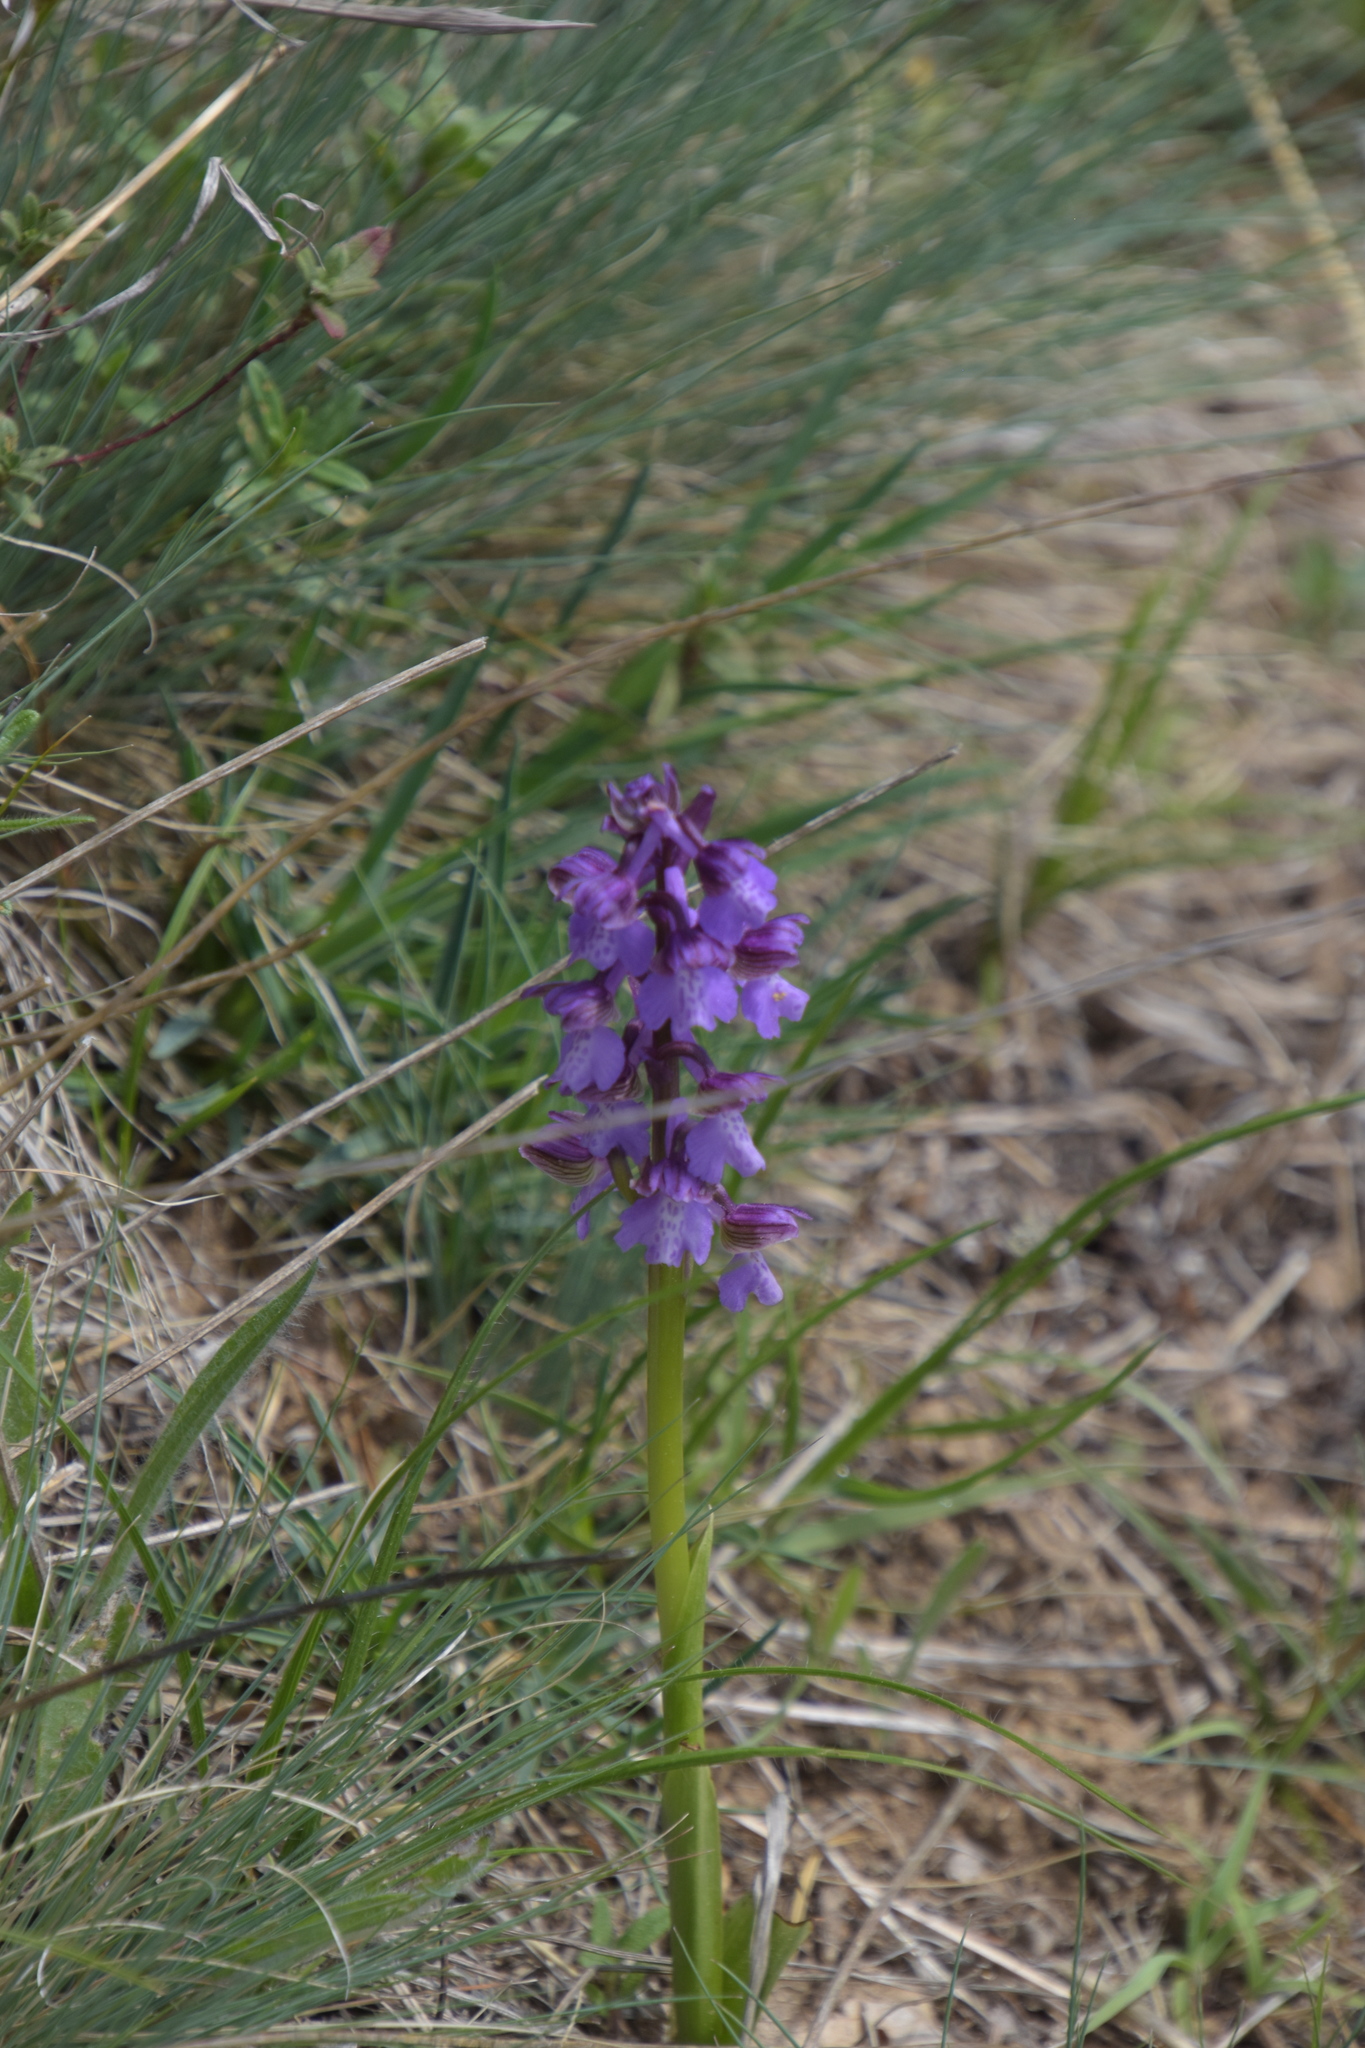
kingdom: Plantae
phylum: Tracheophyta
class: Liliopsida
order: Asparagales
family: Orchidaceae
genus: Anacamptis
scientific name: Anacamptis morio
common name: Green-winged orchid
